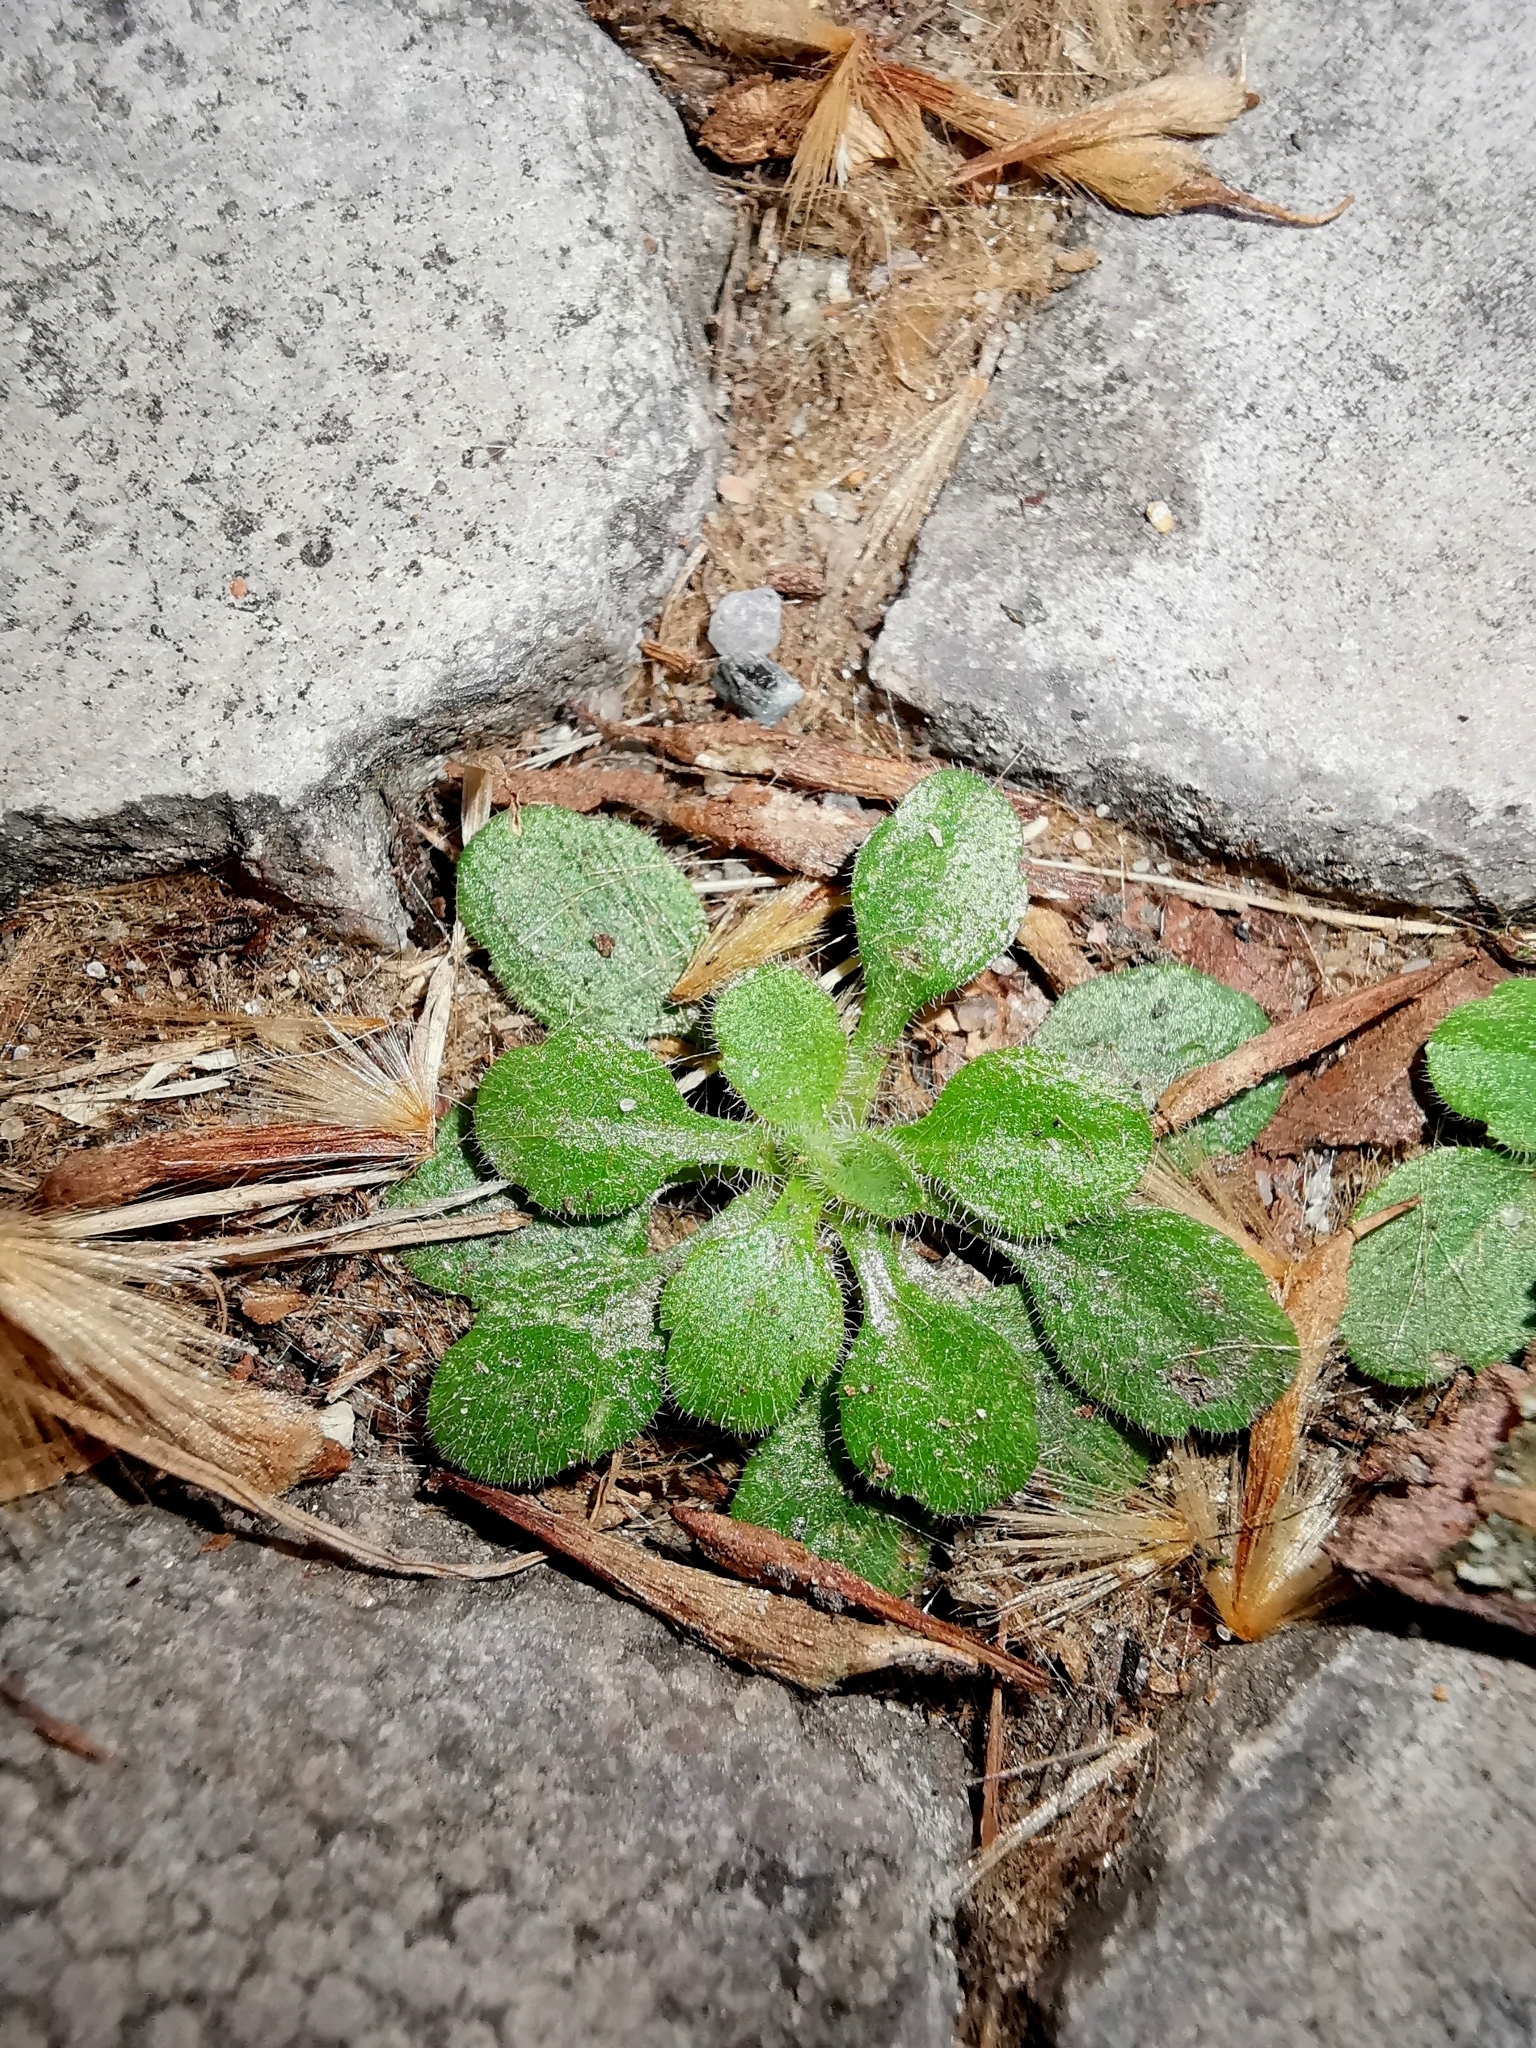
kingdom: Plantae
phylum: Tracheophyta
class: Magnoliopsida
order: Brassicales
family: Brassicaceae
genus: Arabidopsis
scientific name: Arabidopsis thaliana
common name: Thale cress
